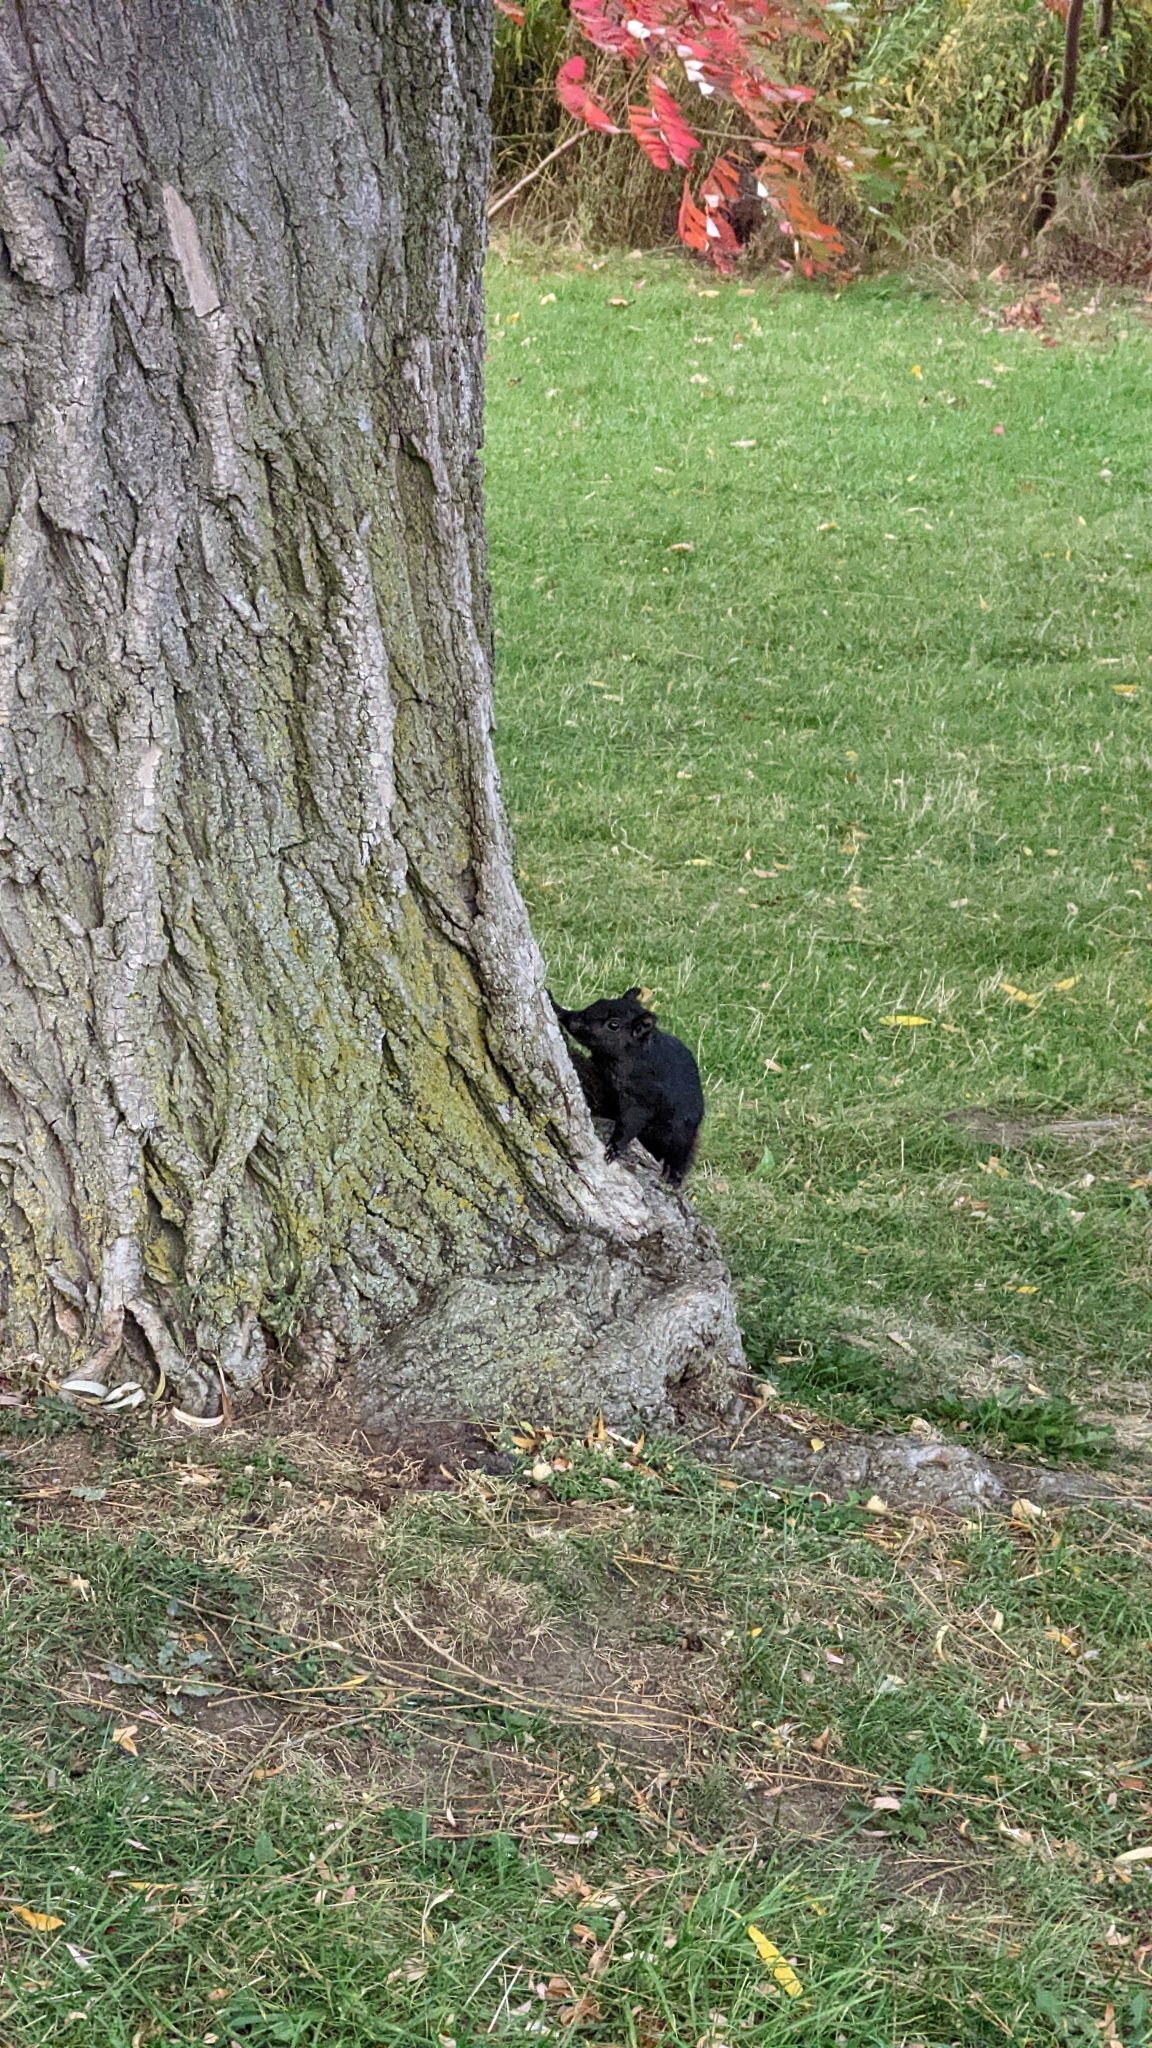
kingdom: Animalia
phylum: Chordata
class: Mammalia
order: Rodentia
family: Sciuridae
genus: Sciurus
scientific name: Sciurus carolinensis
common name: Eastern gray squirrel
